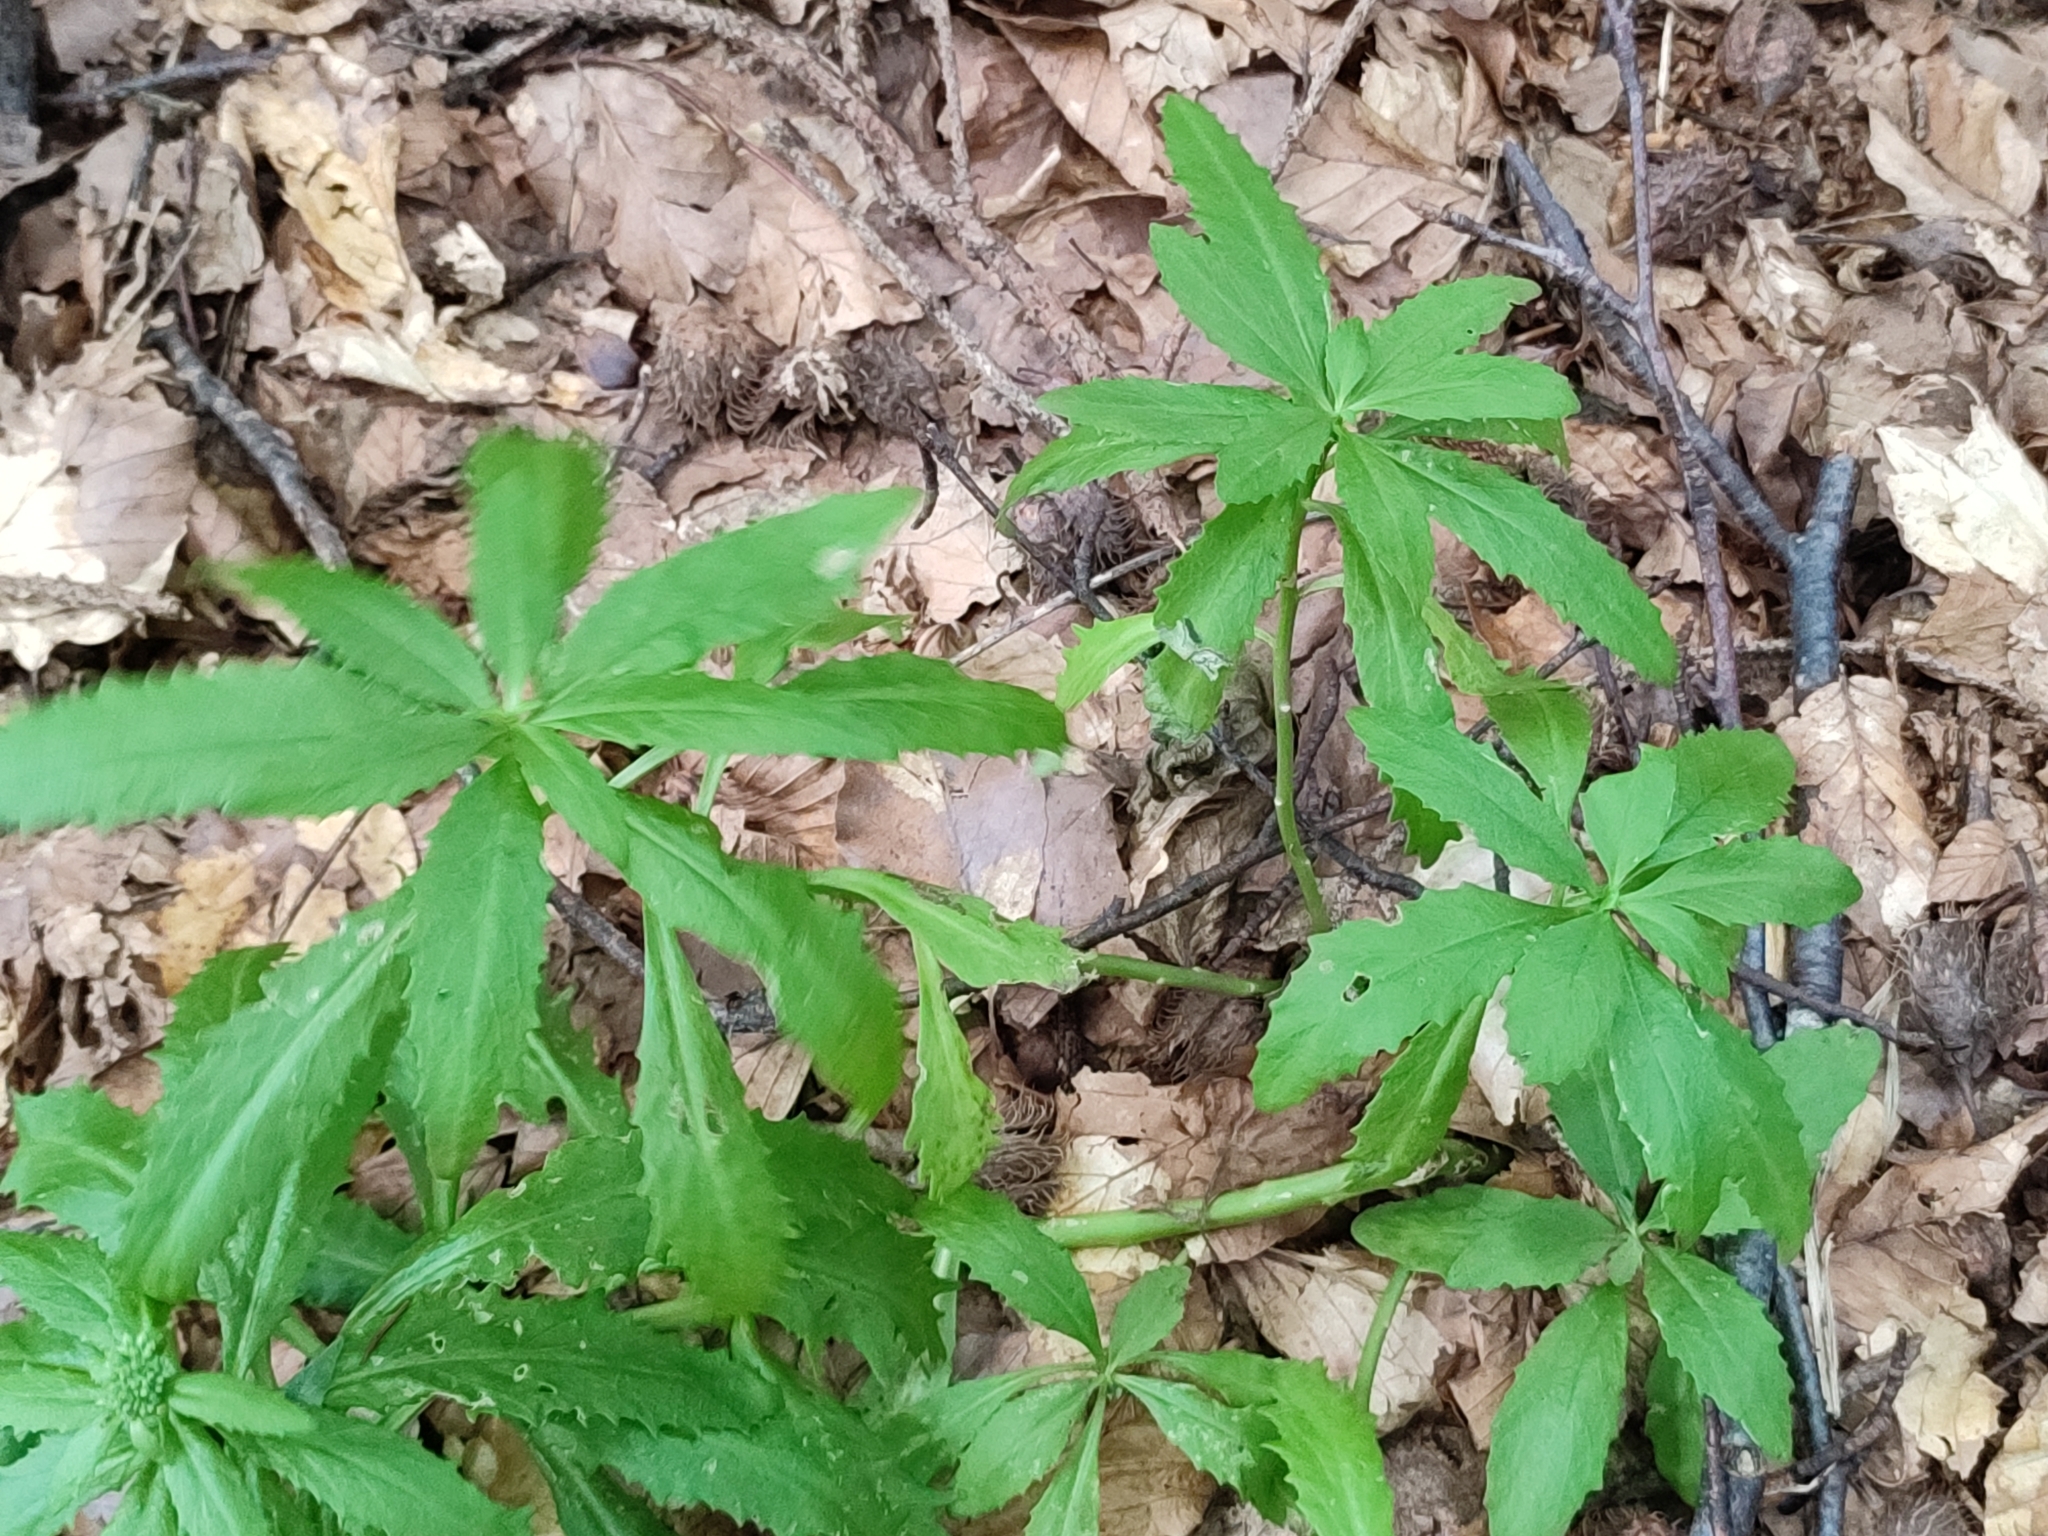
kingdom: Plantae
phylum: Tracheophyta
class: Magnoliopsida
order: Saxifragales
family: Crassulaceae
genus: Hylotelephium
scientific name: Hylotelephium telephium
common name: Live-forever
